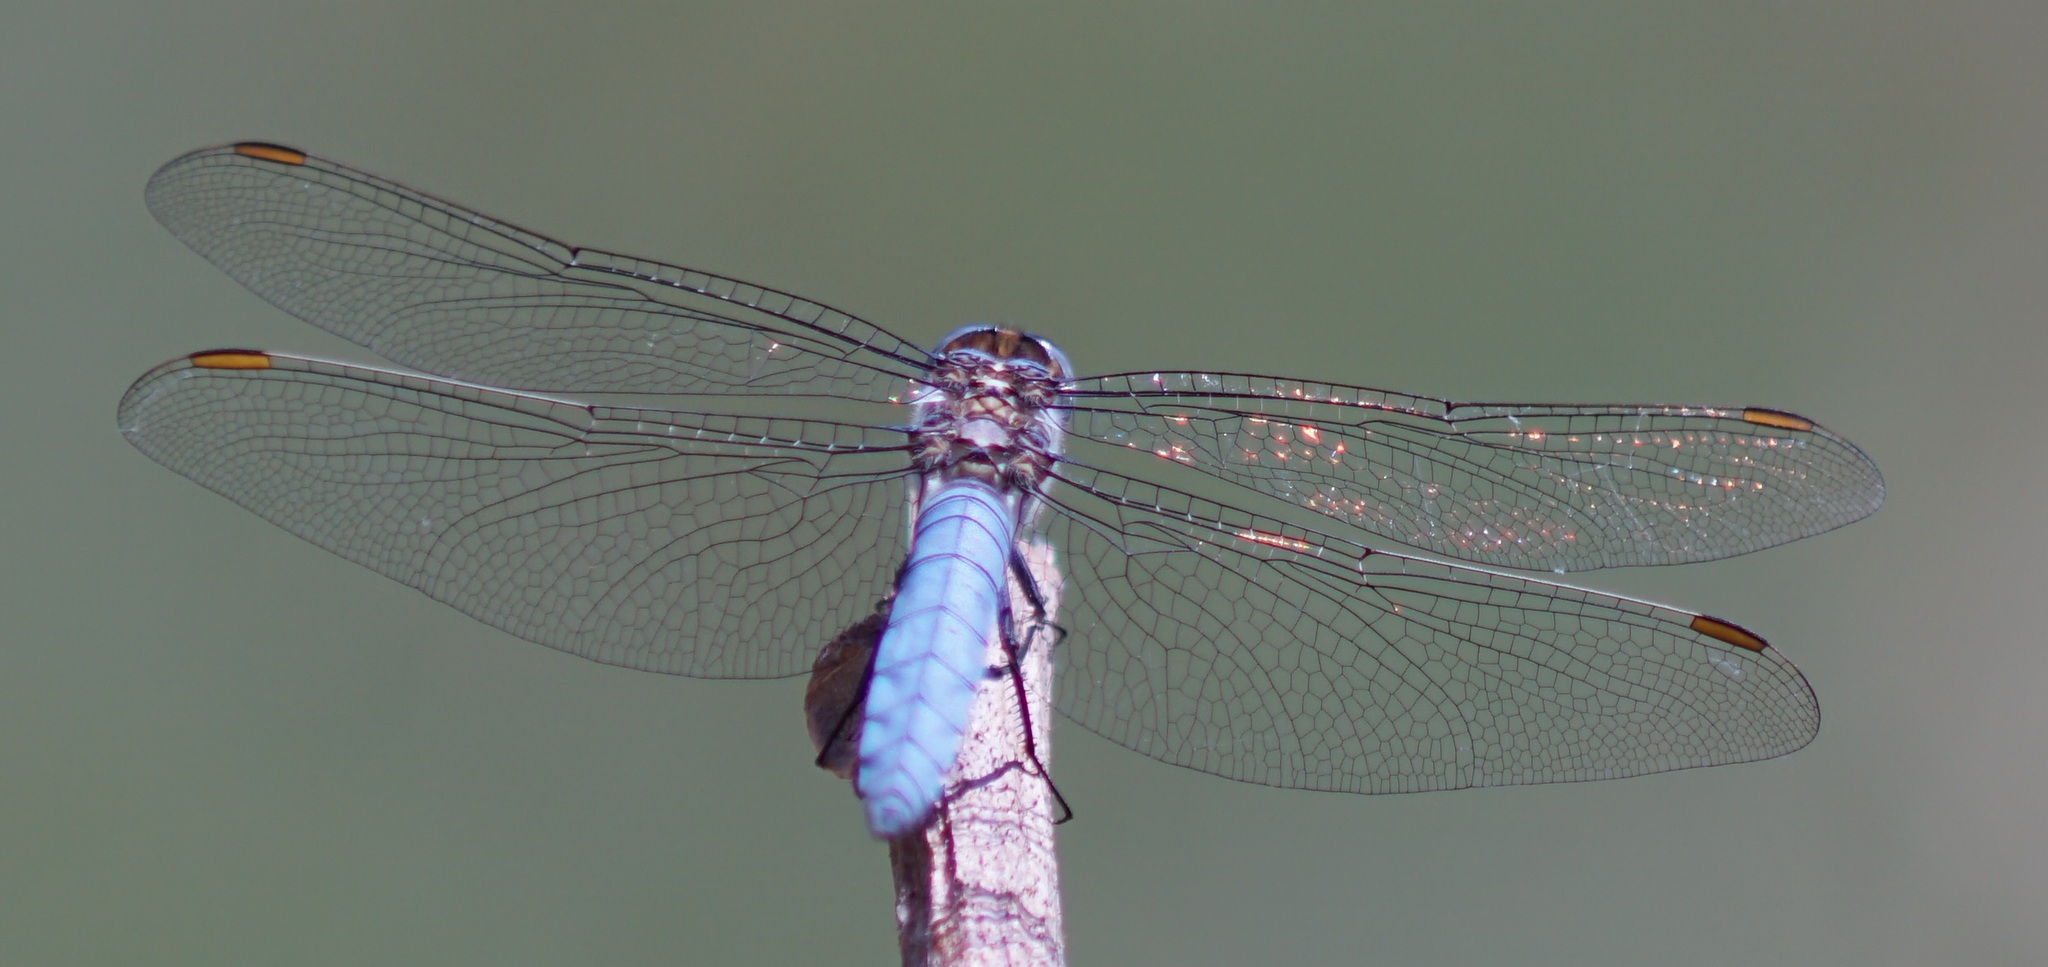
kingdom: Animalia
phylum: Arthropoda
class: Insecta
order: Odonata
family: Libellulidae
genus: Orthetrum
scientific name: Orthetrum brunneum
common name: Southern skimmer
